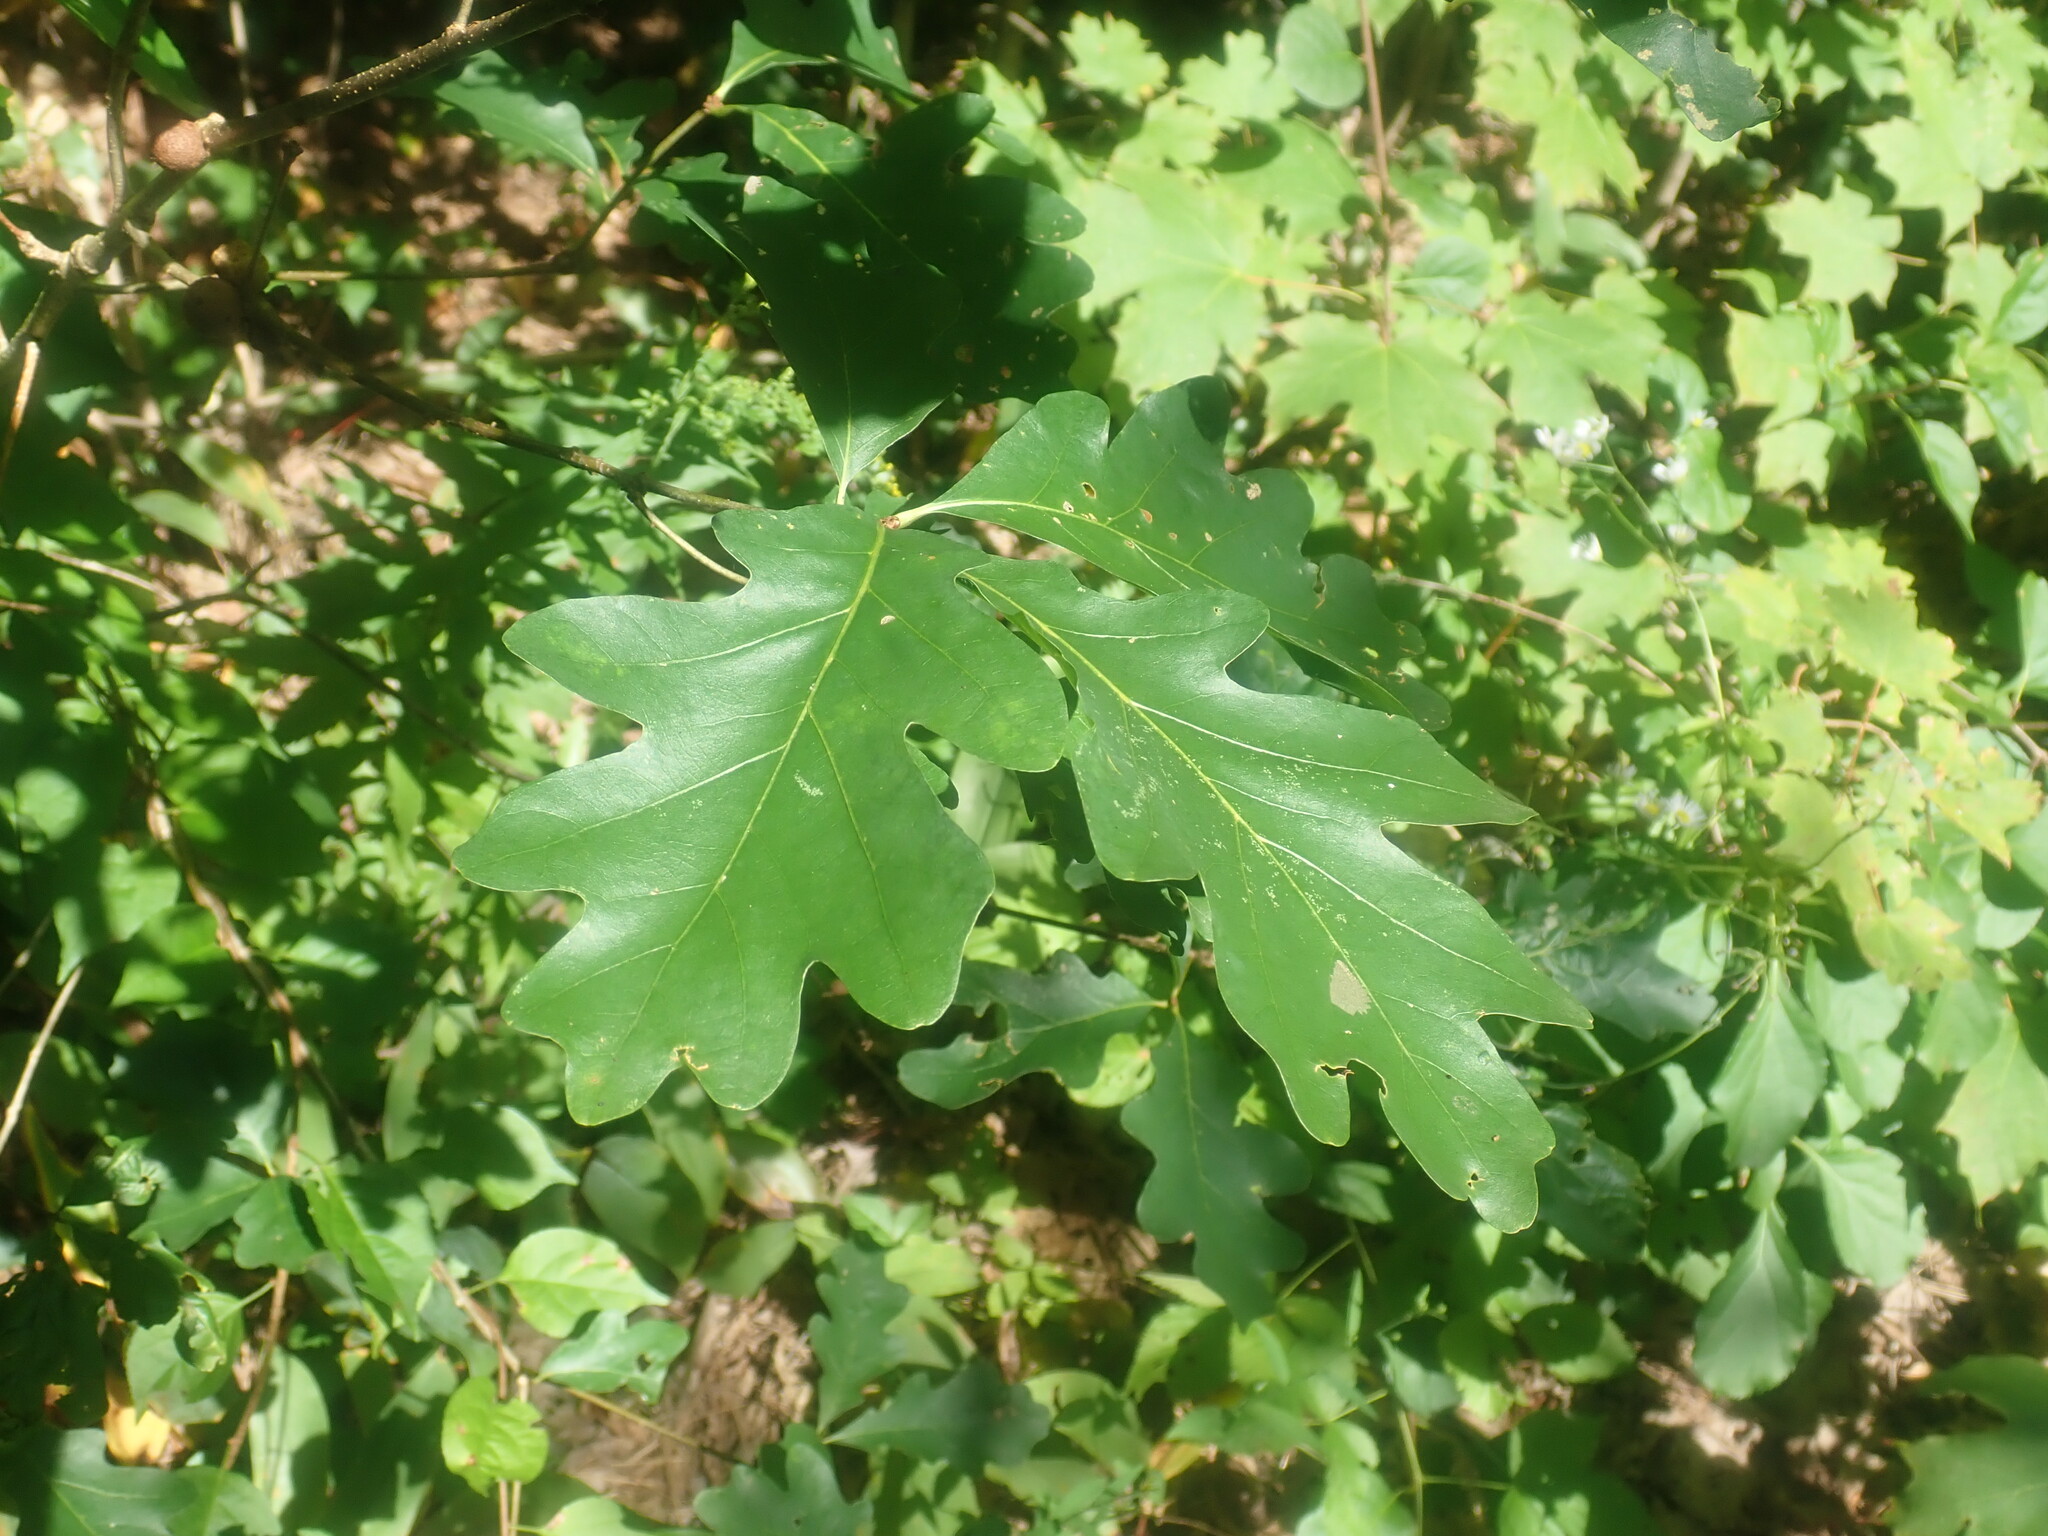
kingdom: Plantae
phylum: Tracheophyta
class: Magnoliopsida
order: Fagales
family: Fagaceae
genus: Quercus
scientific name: Quercus alba
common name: White oak
